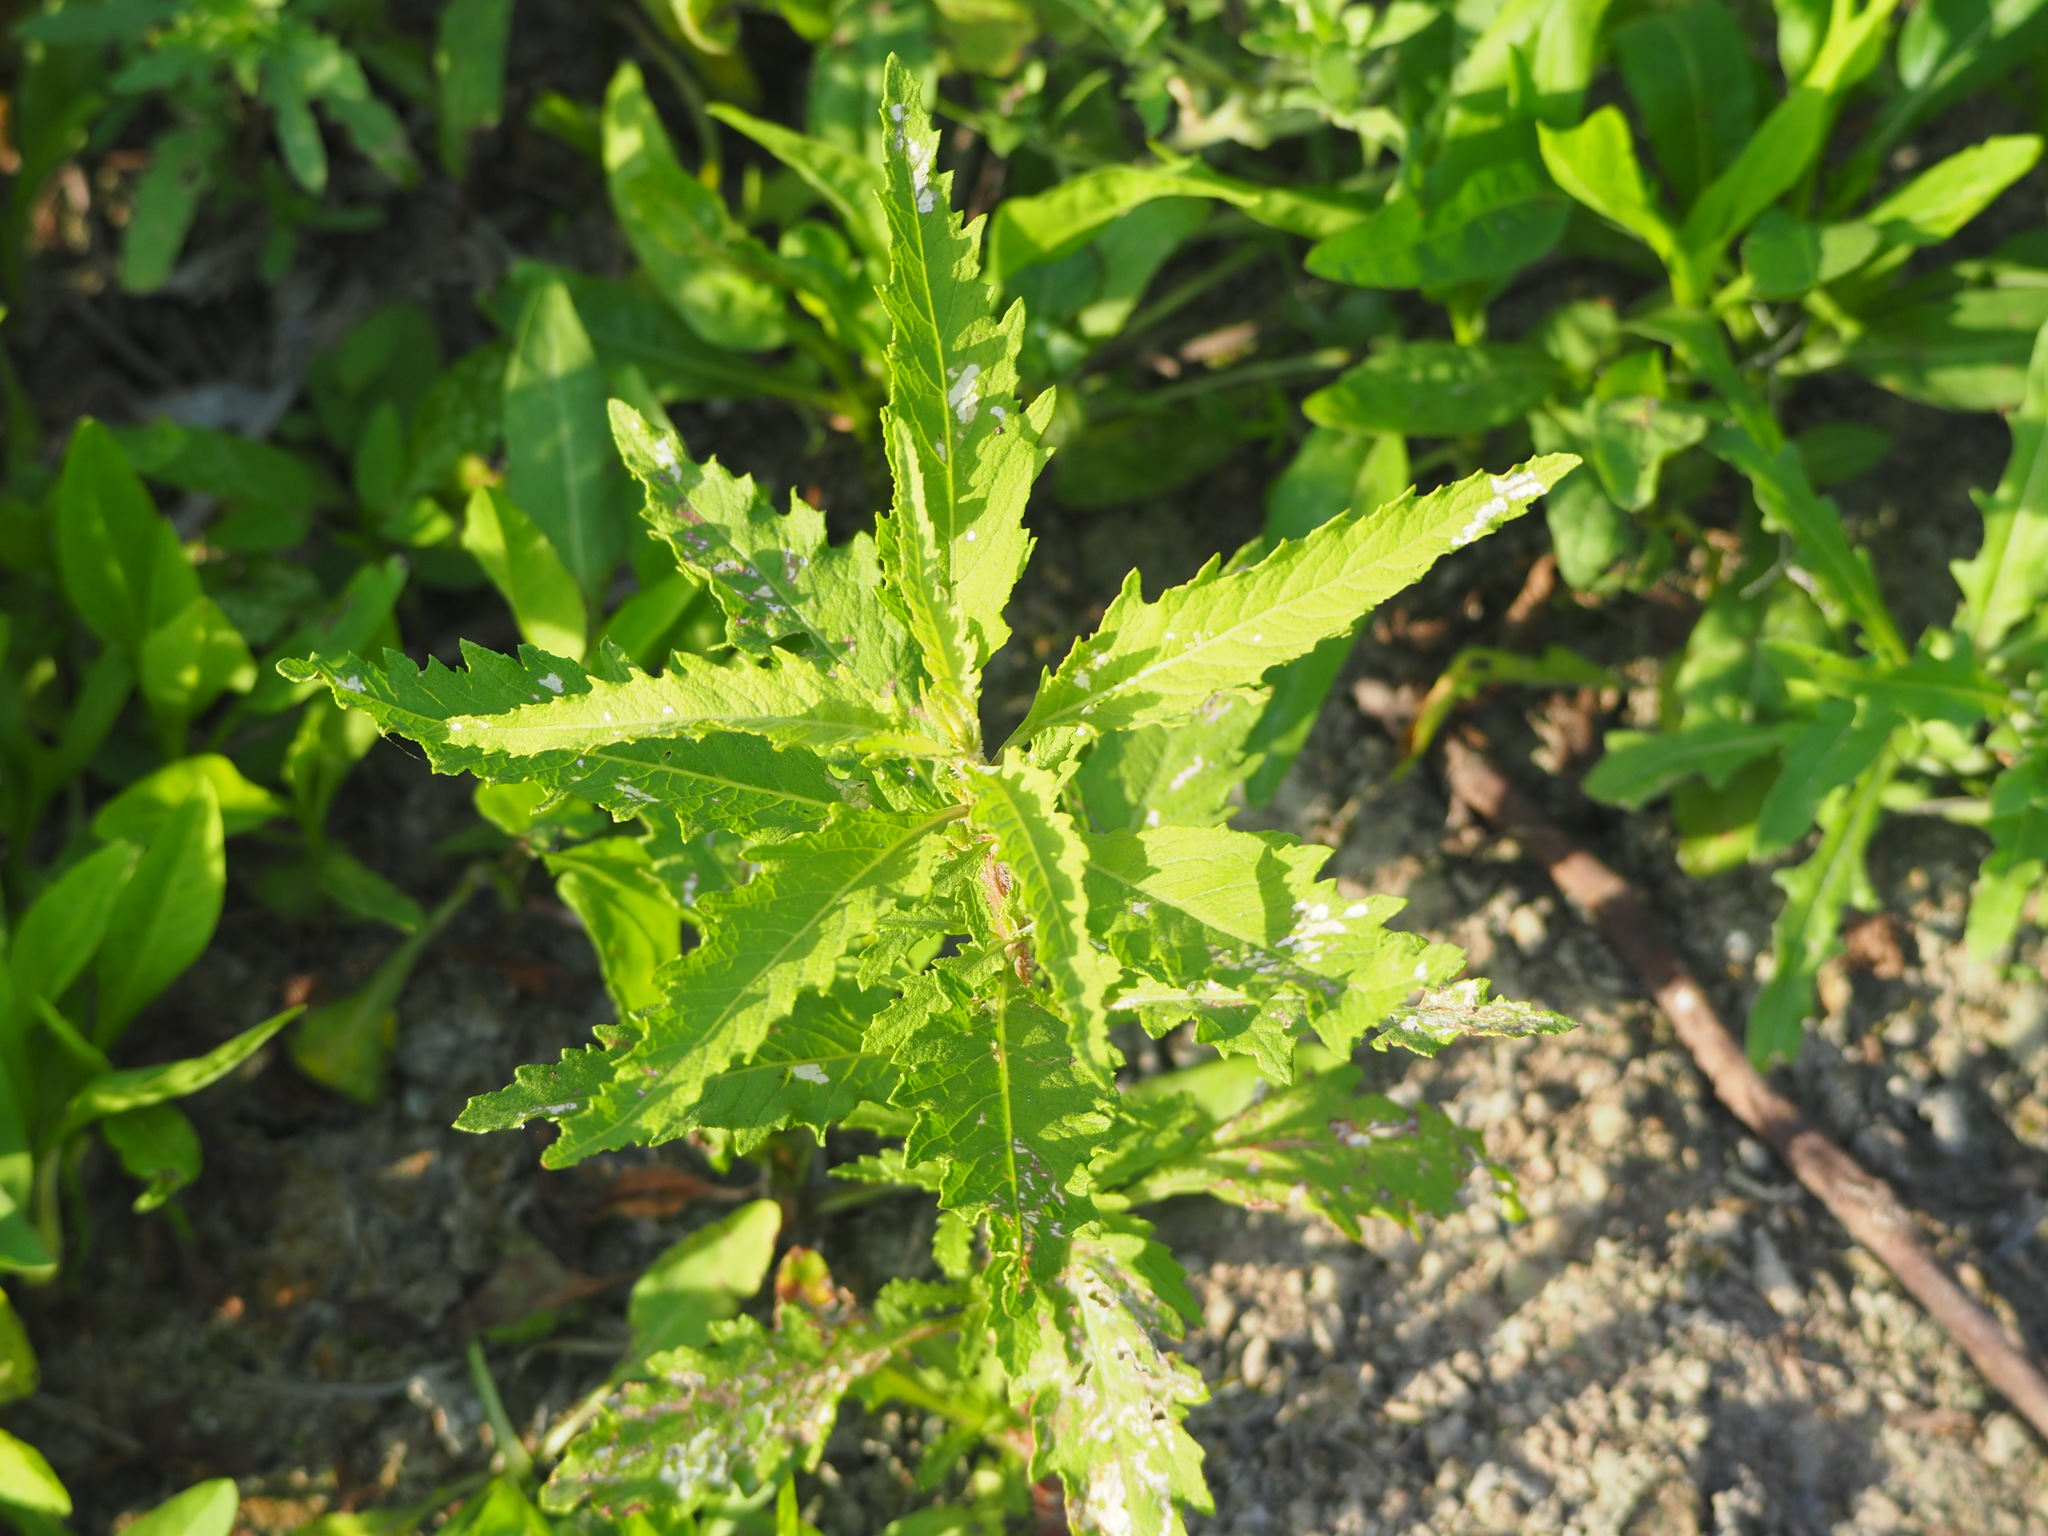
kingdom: Plantae
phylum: Tracheophyta
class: Magnoliopsida
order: Caryophyllales
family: Amaranthaceae
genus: Dysphania
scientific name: Dysphania ambrosioides
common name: Wormseed
